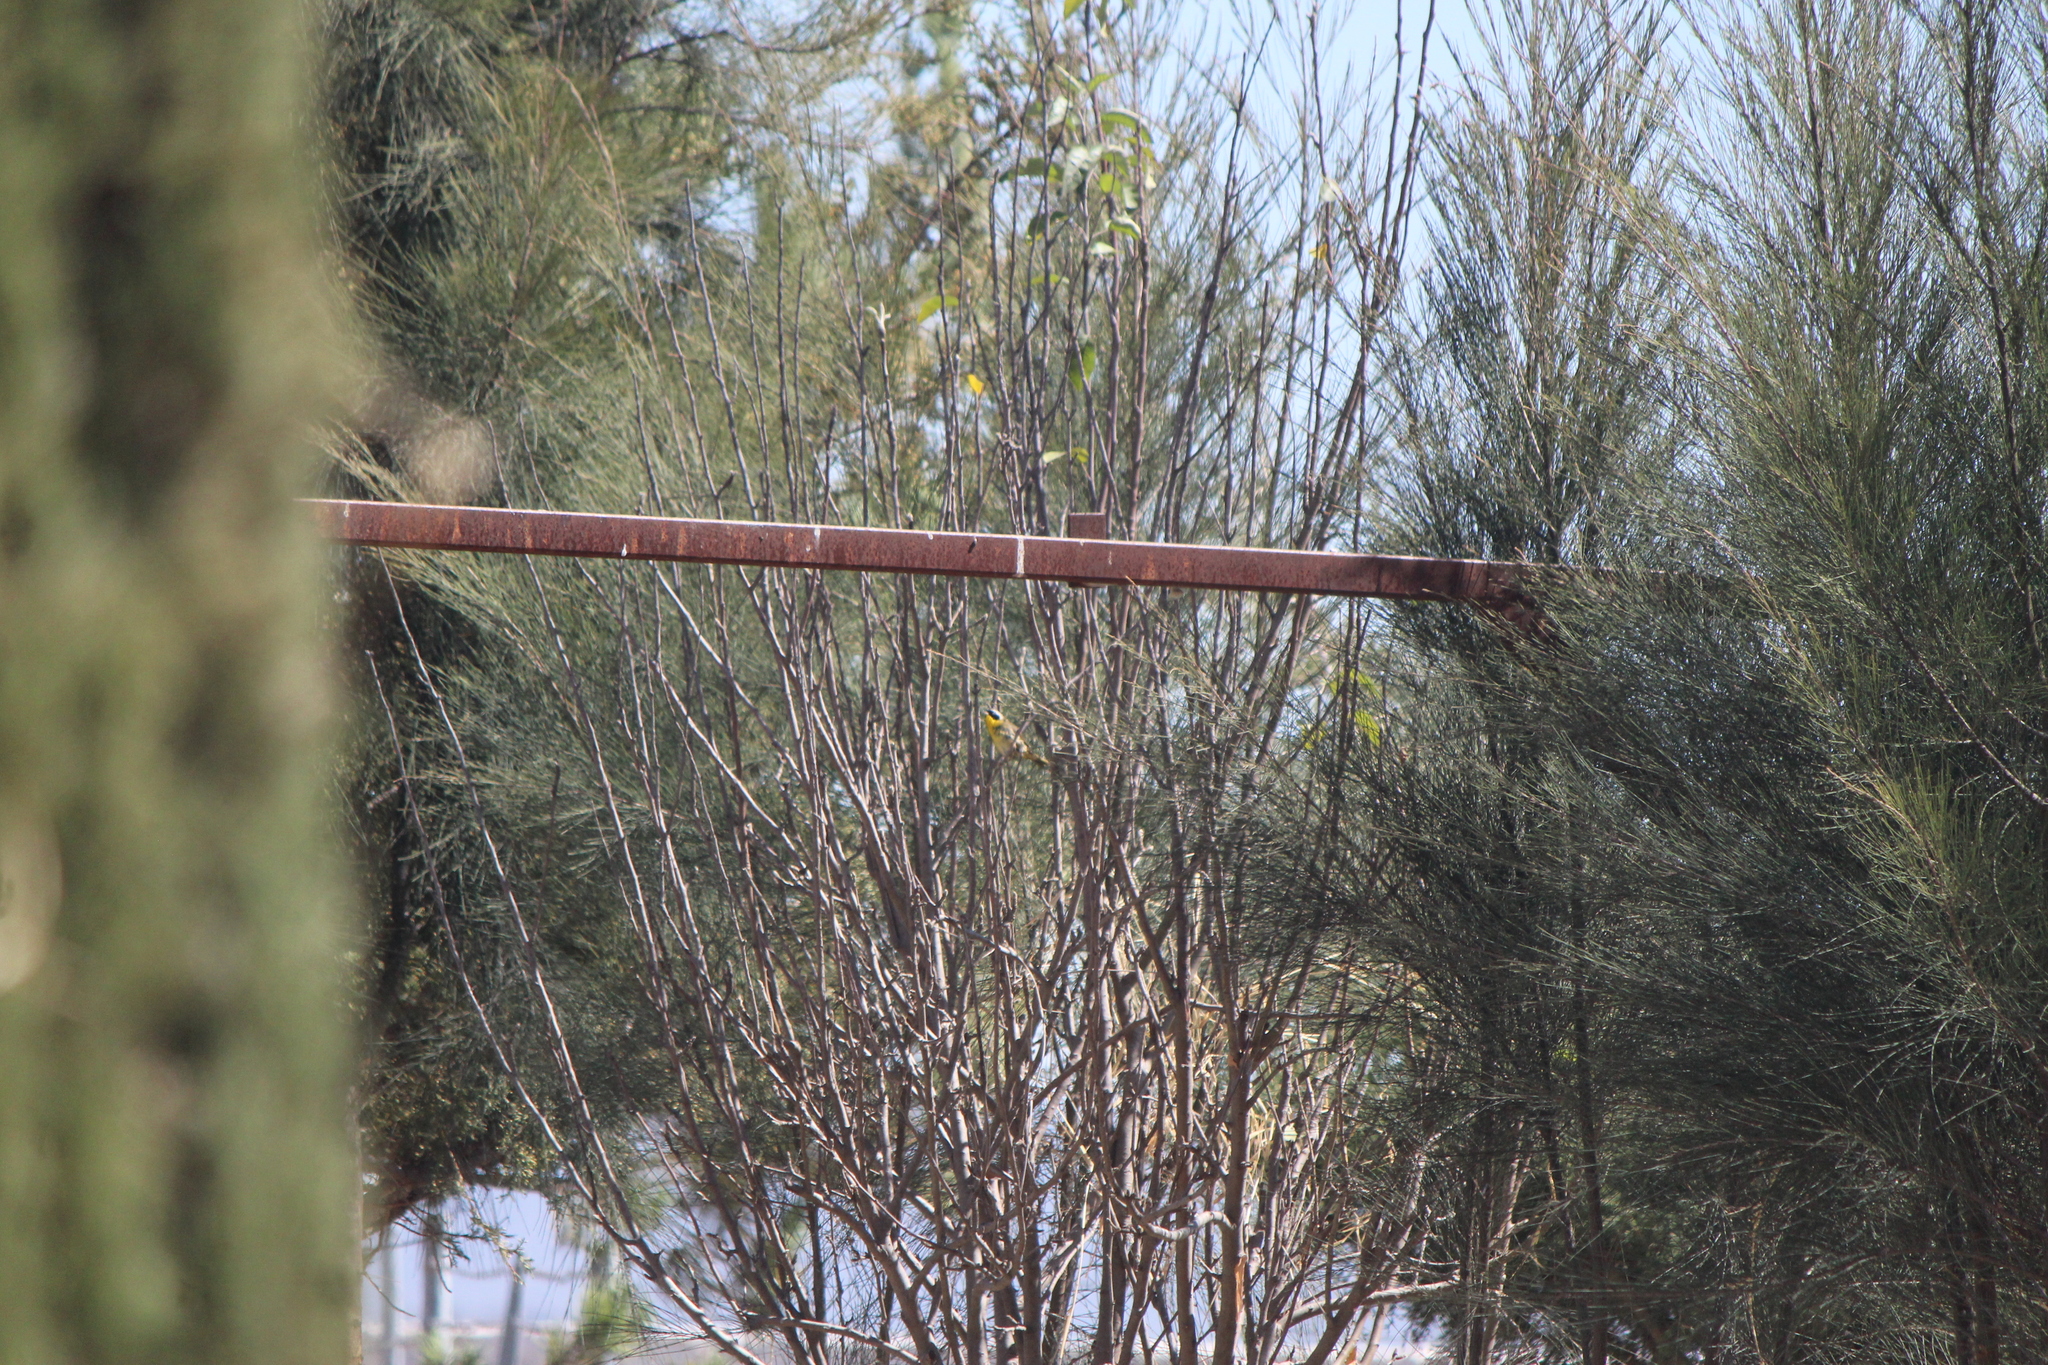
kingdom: Animalia
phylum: Chordata
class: Aves
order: Passeriformes
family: Parulidae
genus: Geothlypis
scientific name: Geothlypis trichas
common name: Common yellowthroat
